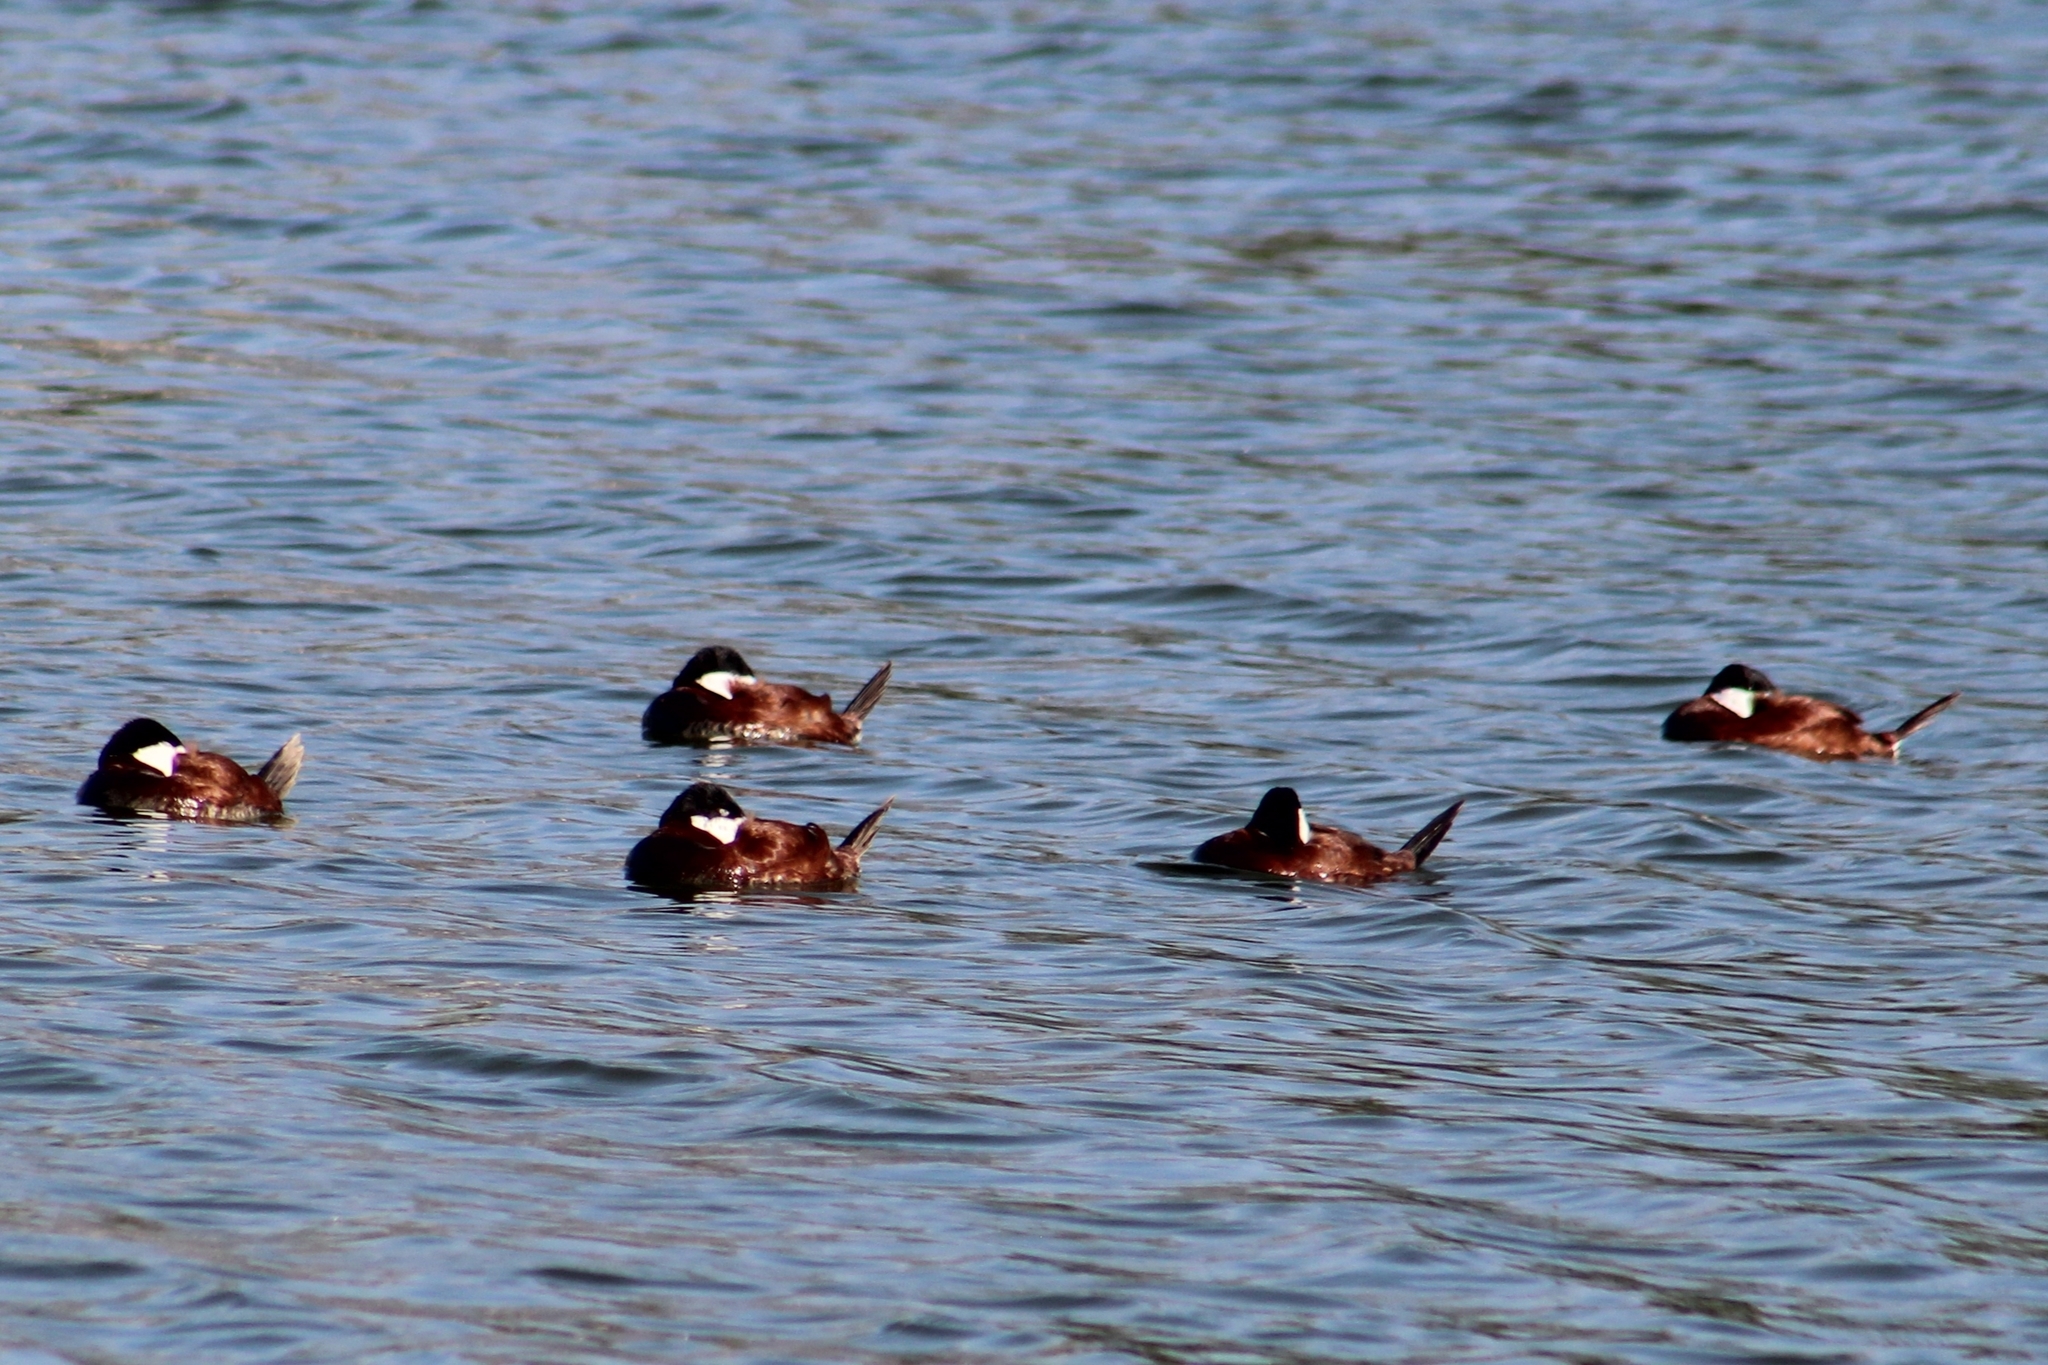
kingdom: Animalia
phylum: Chordata
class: Aves
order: Anseriformes
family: Anatidae
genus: Oxyura
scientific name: Oxyura jamaicensis
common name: Ruddy duck
